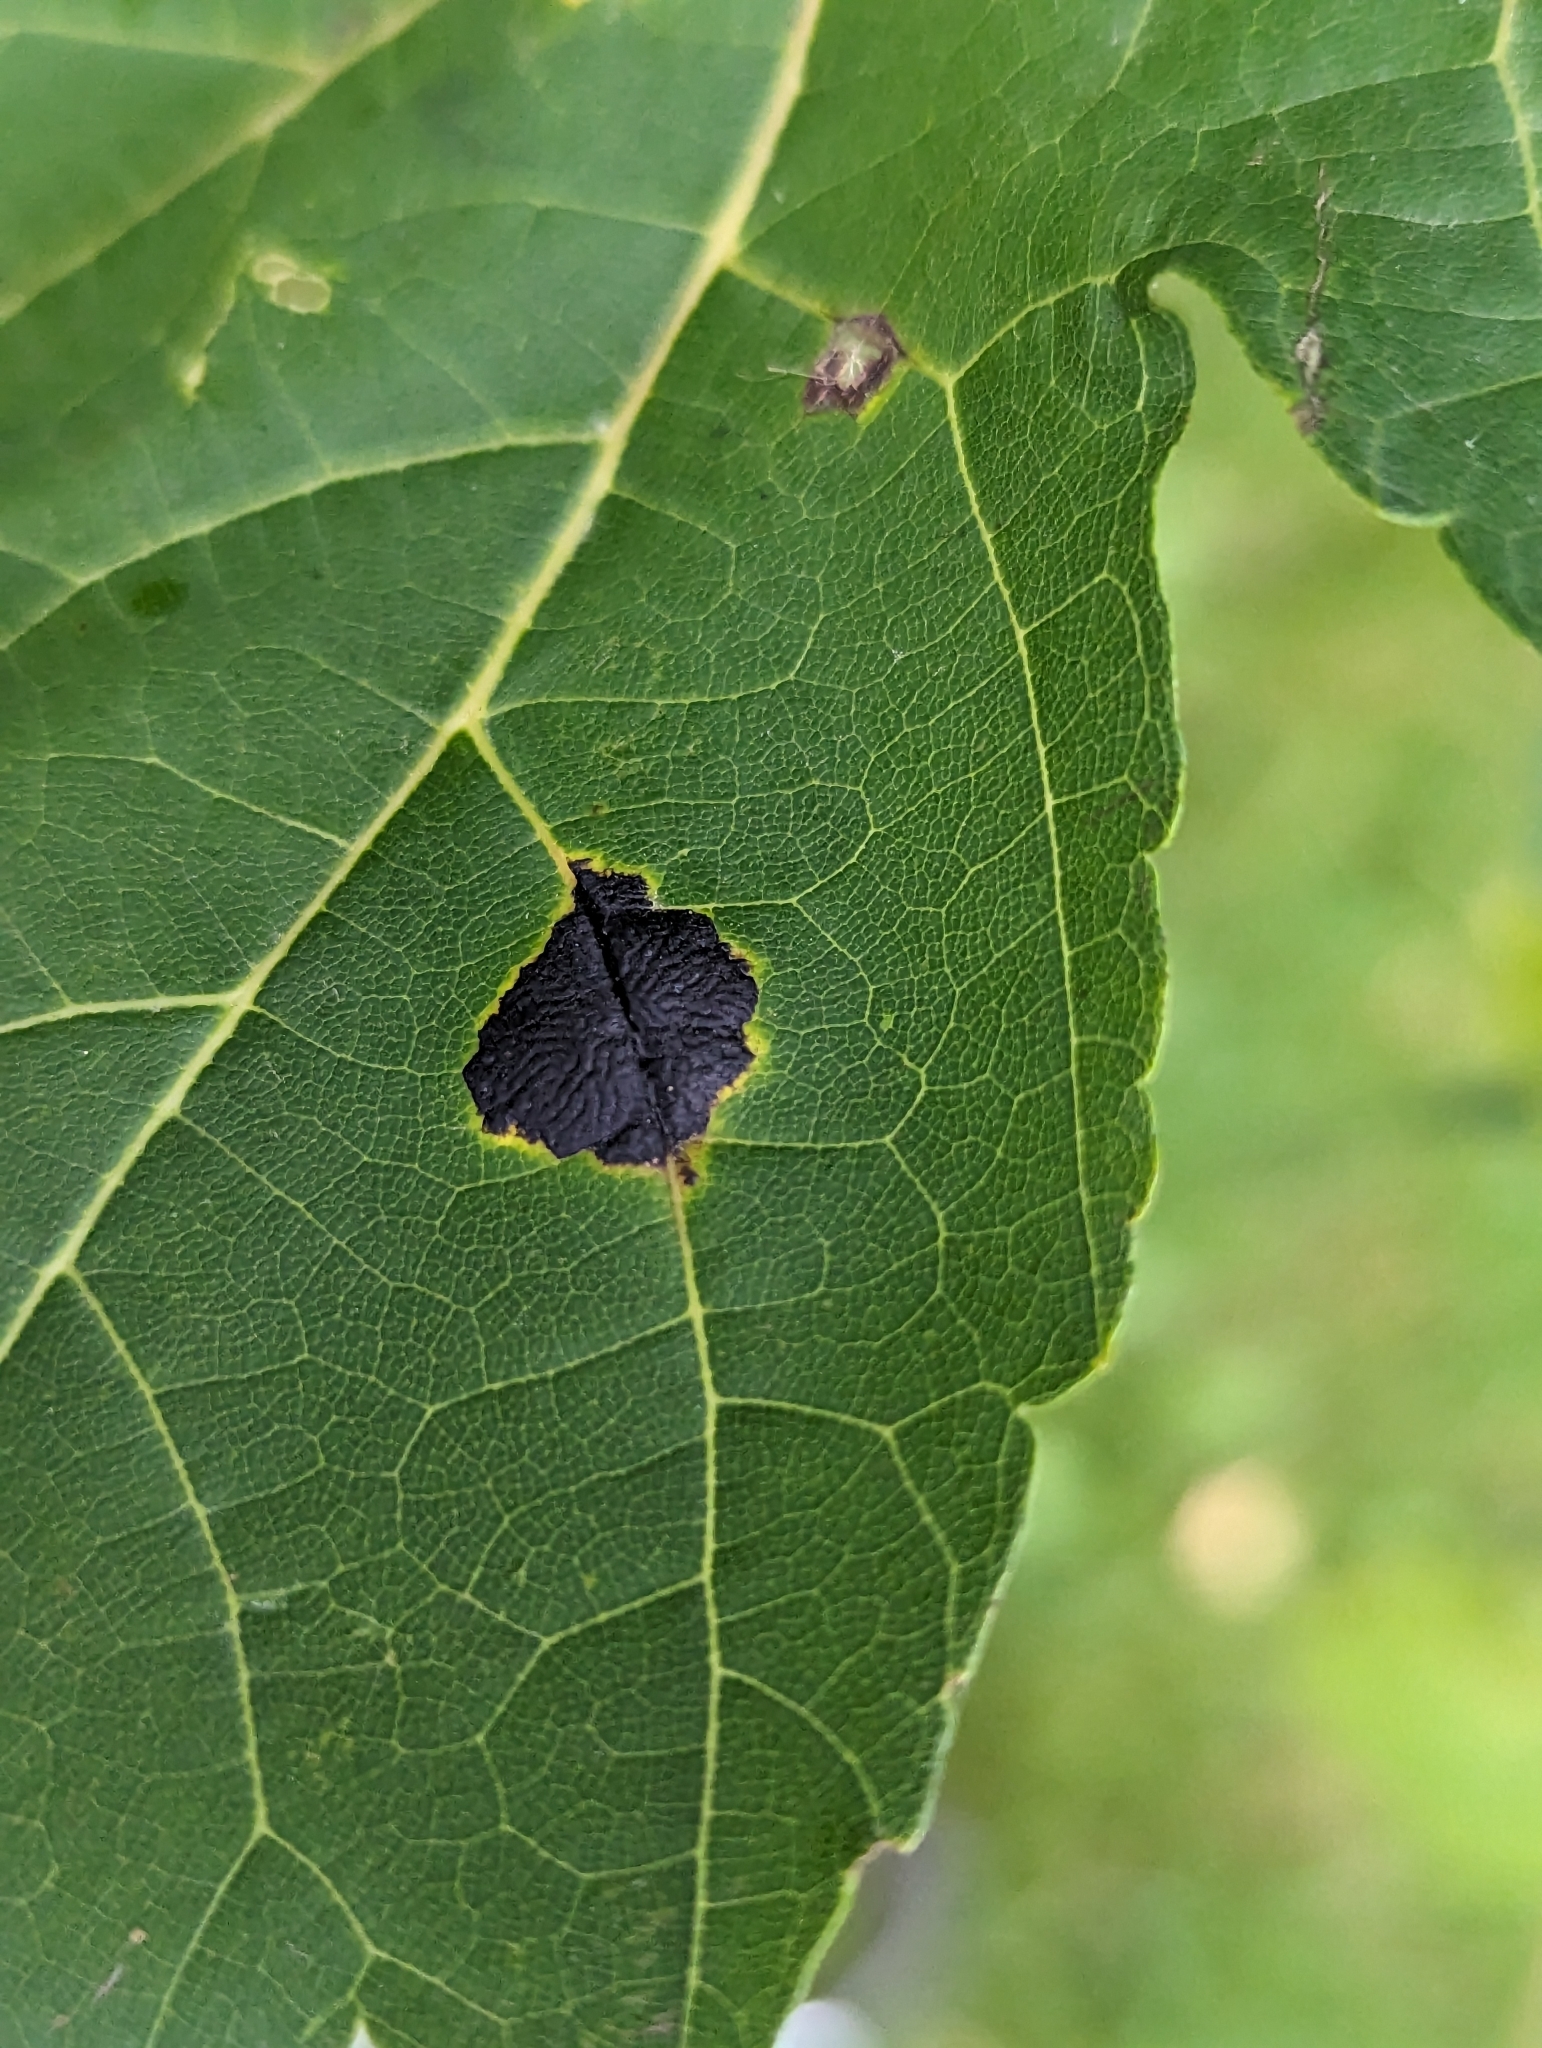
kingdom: Fungi
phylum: Ascomycota
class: Leotiomycetes
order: Rhytismatales
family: Rhytismataceae
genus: Rhytisma
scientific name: Rhytisma americanum
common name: American tar spot
